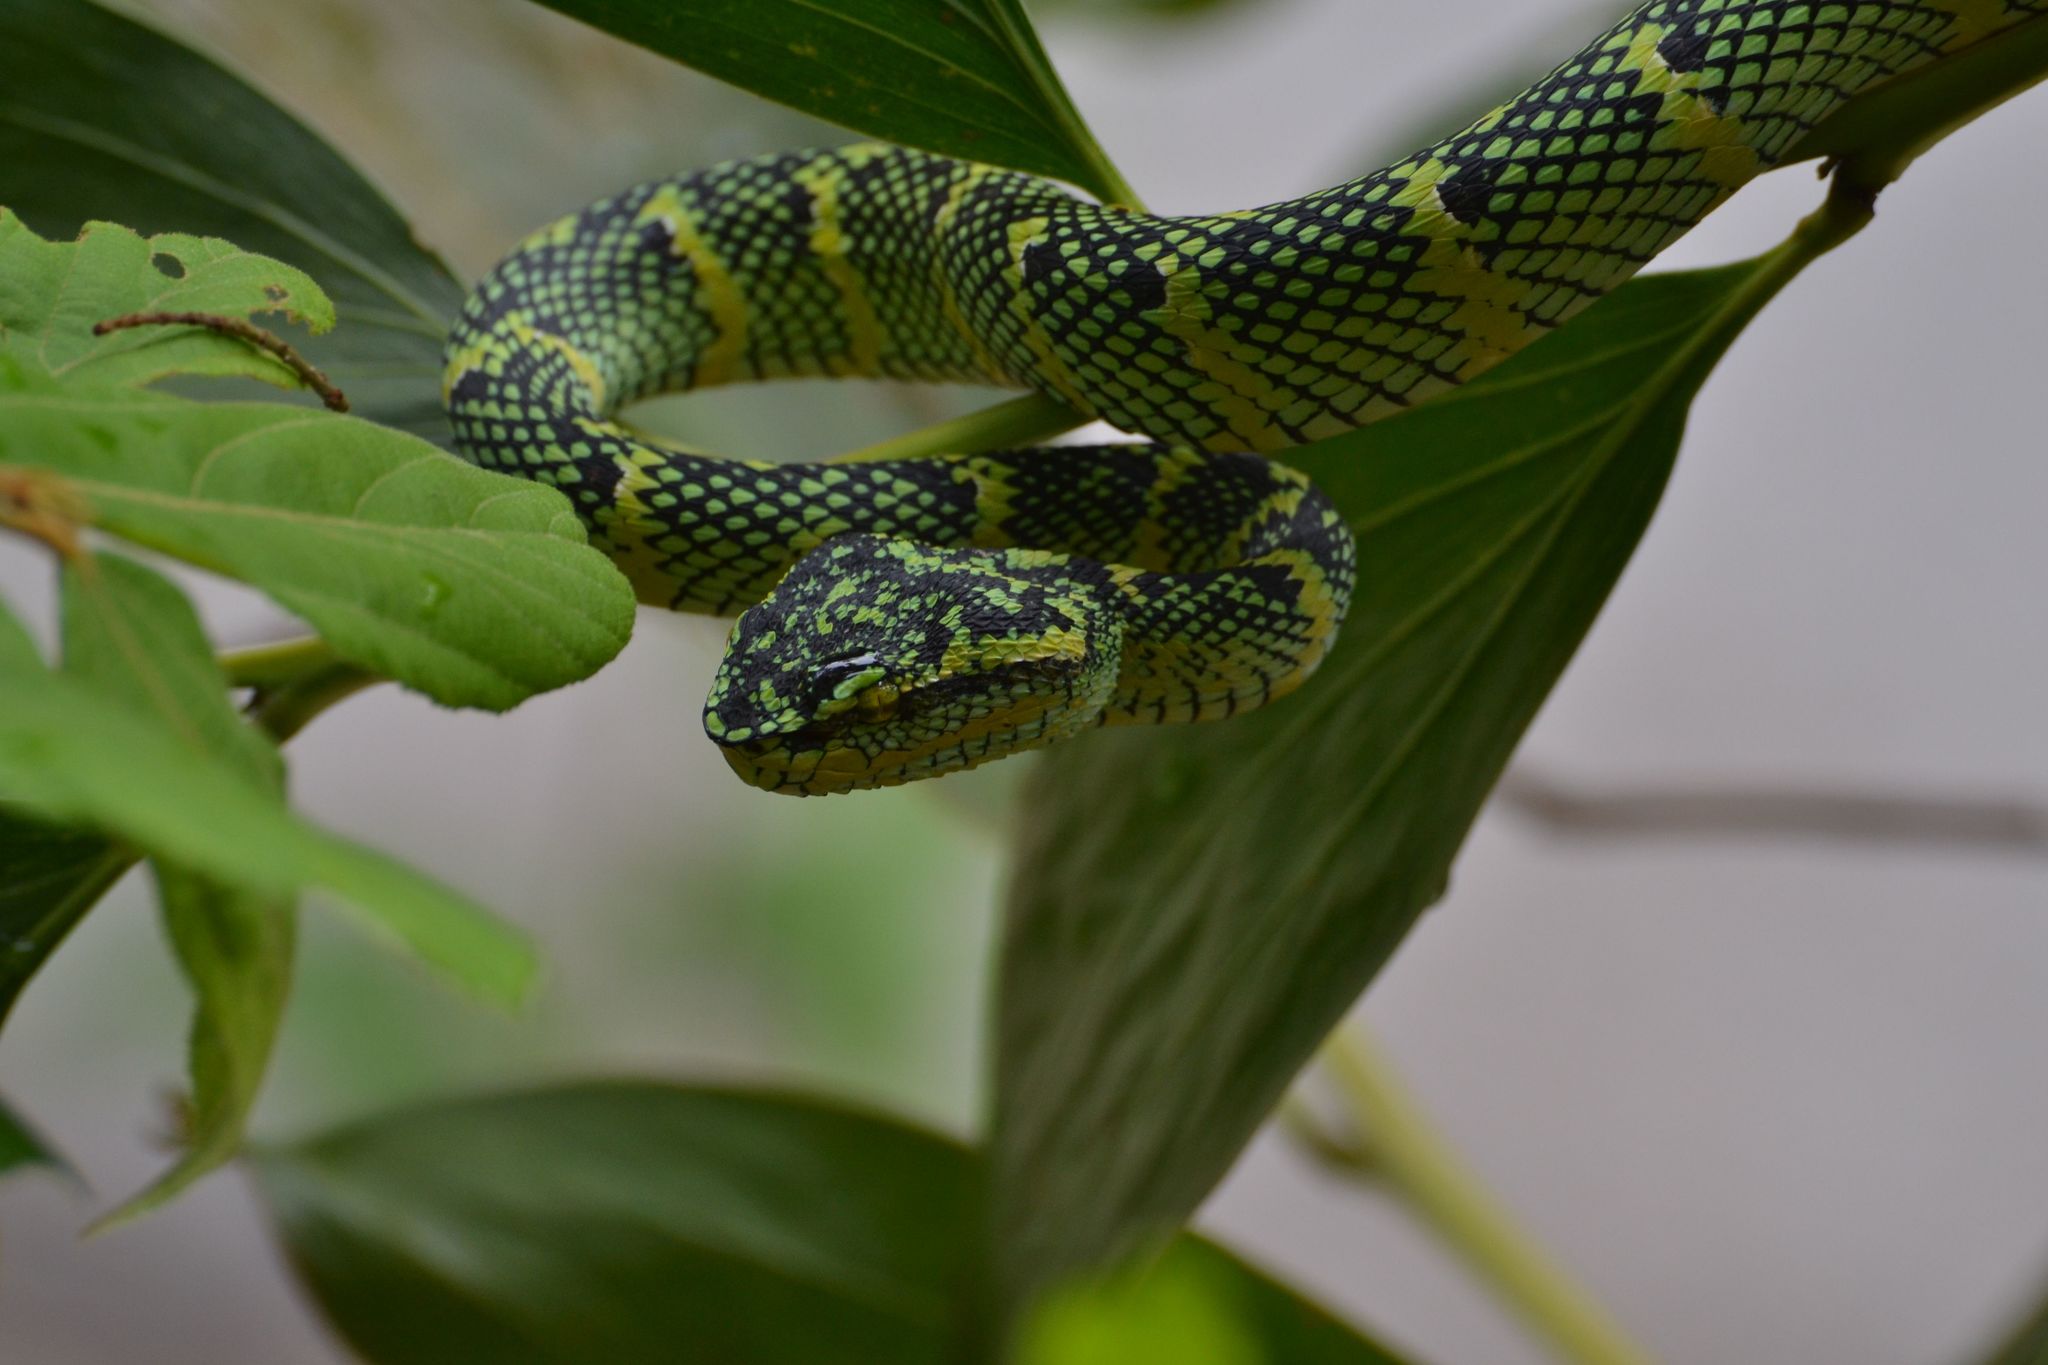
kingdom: Animalia
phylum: Chordata
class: Squamata
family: Viperidae
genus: Tropidolaemus
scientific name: Tropidolaemus wagleri
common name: Wagler's palm viper
